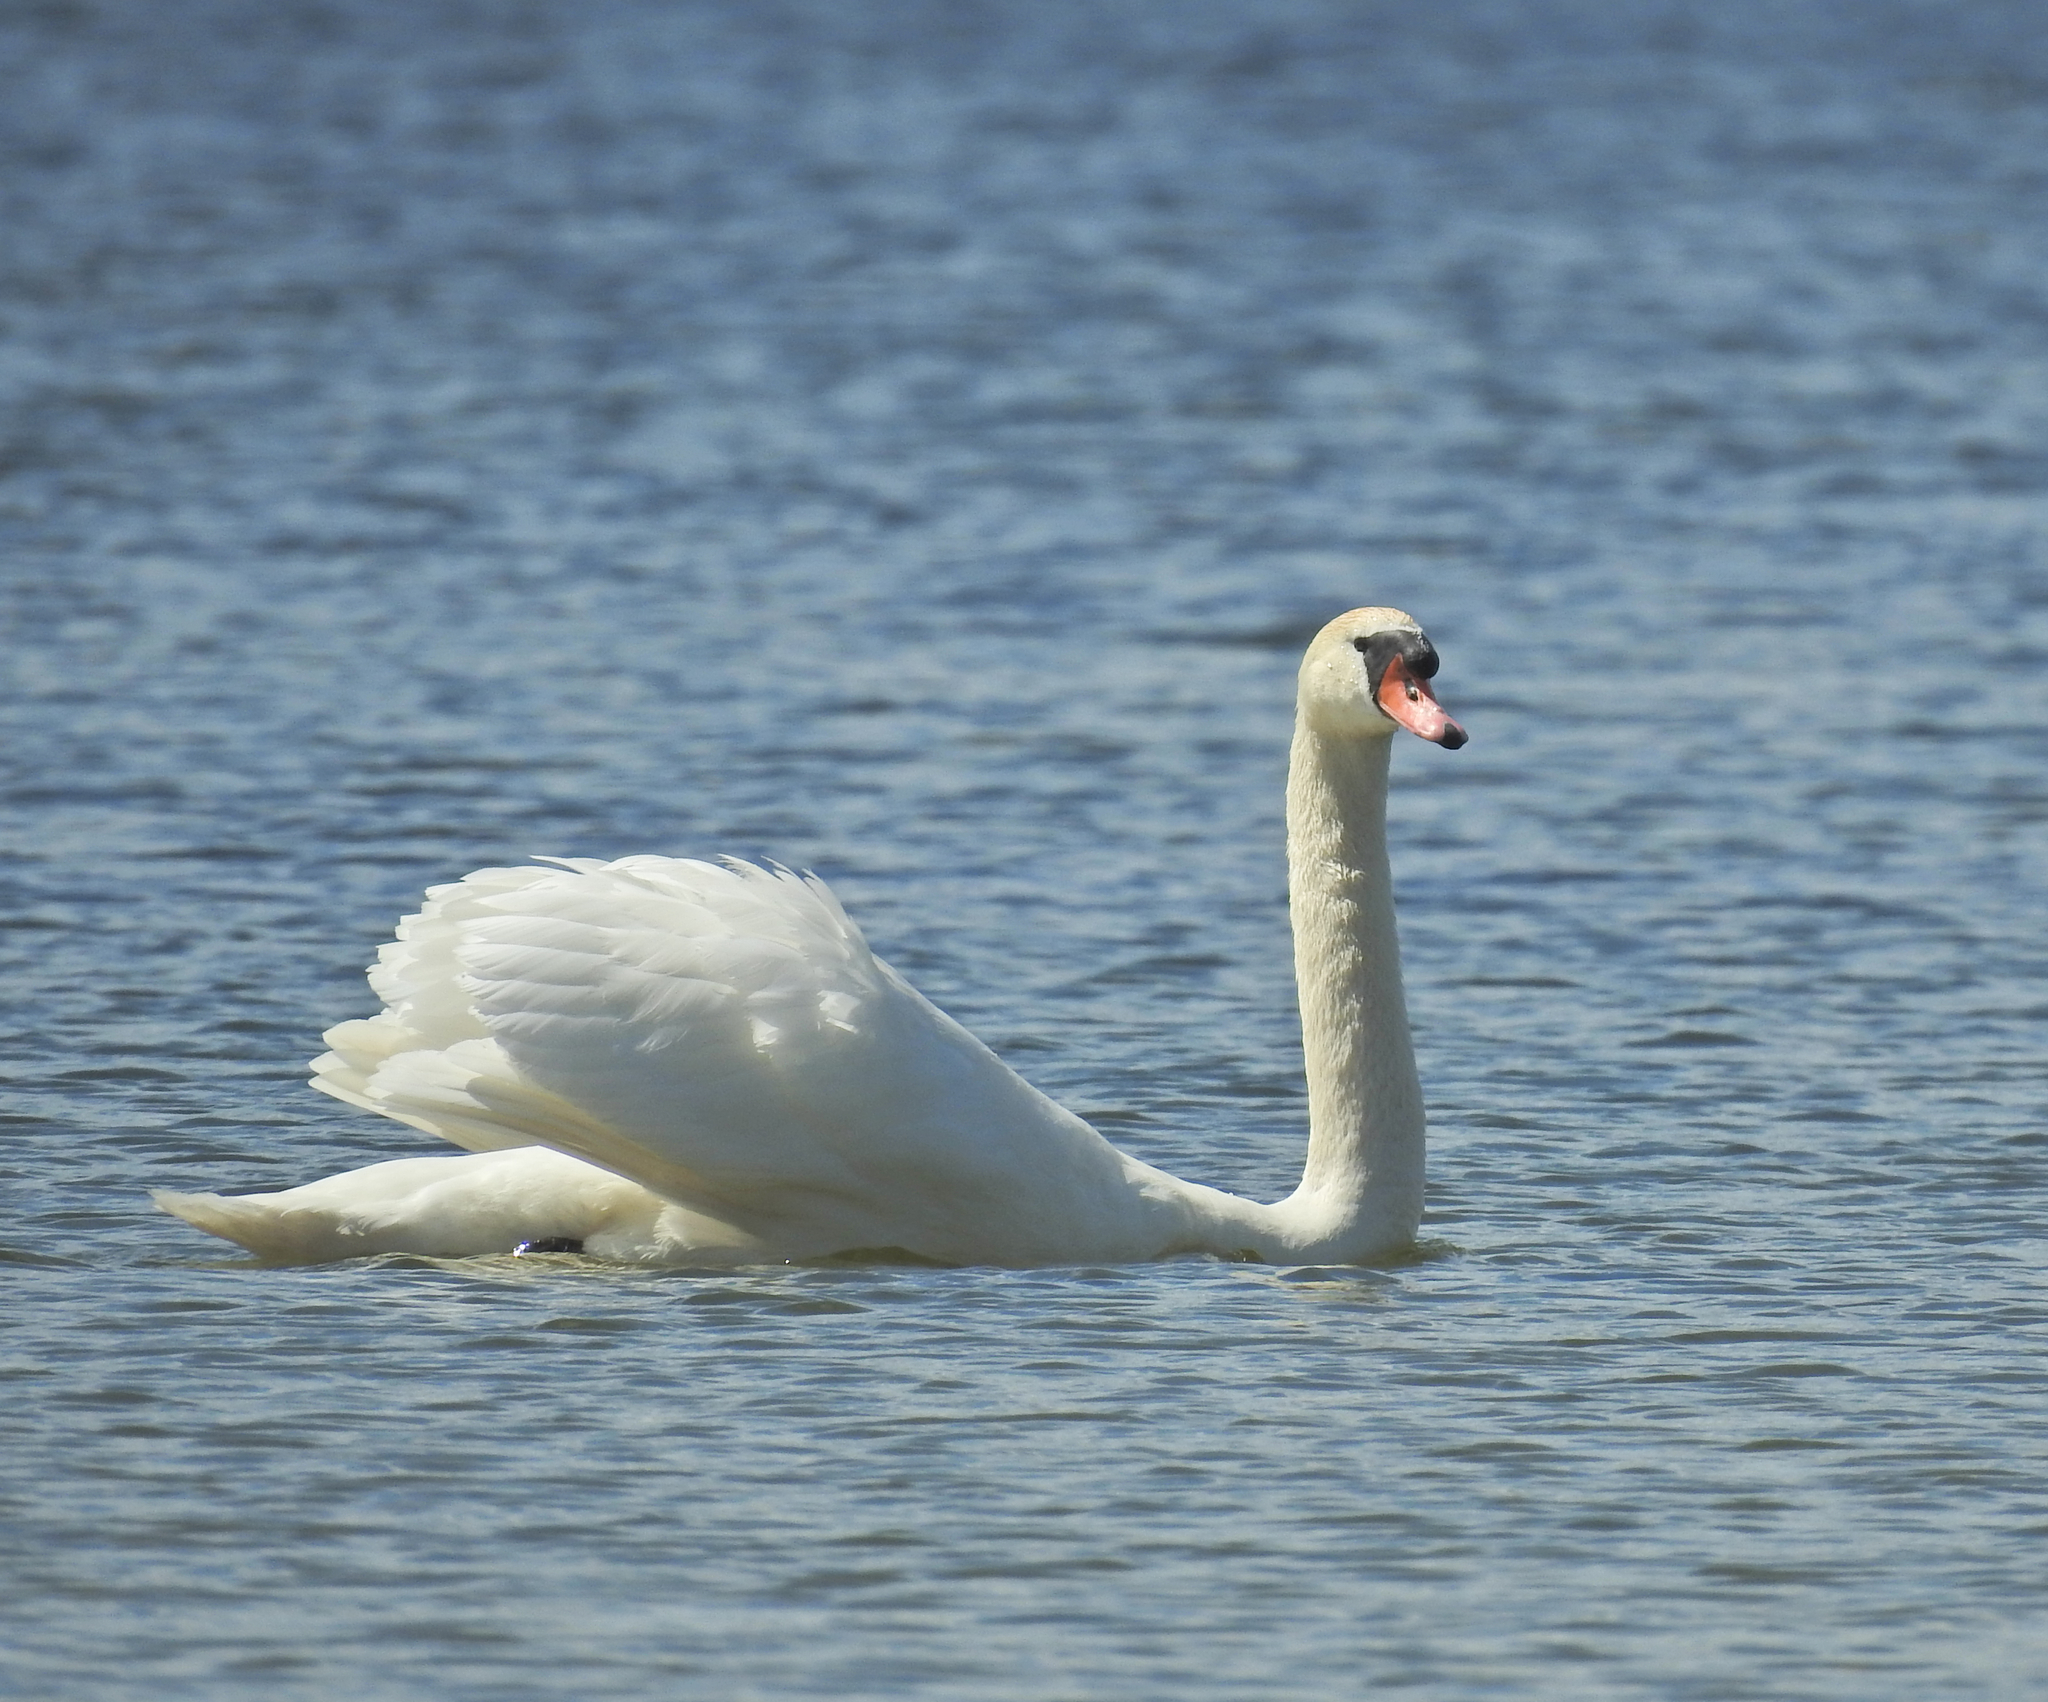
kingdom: Animalia
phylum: Chordata
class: Aves
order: Anseriformes
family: Anatidae
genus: Cygnus
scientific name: Cygnus olor
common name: Mute swan
